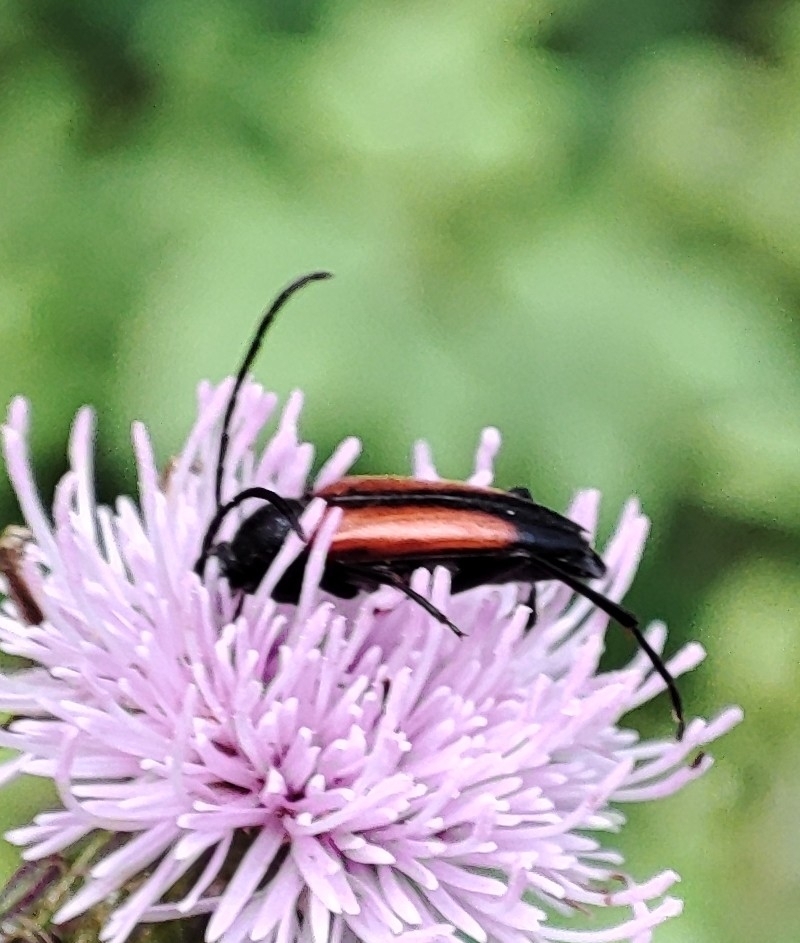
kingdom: Animalia
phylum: Arthropoda
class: Insecta
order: Coleoptera
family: Cerambycidae
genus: Stenurella
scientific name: Stenurella melanura
